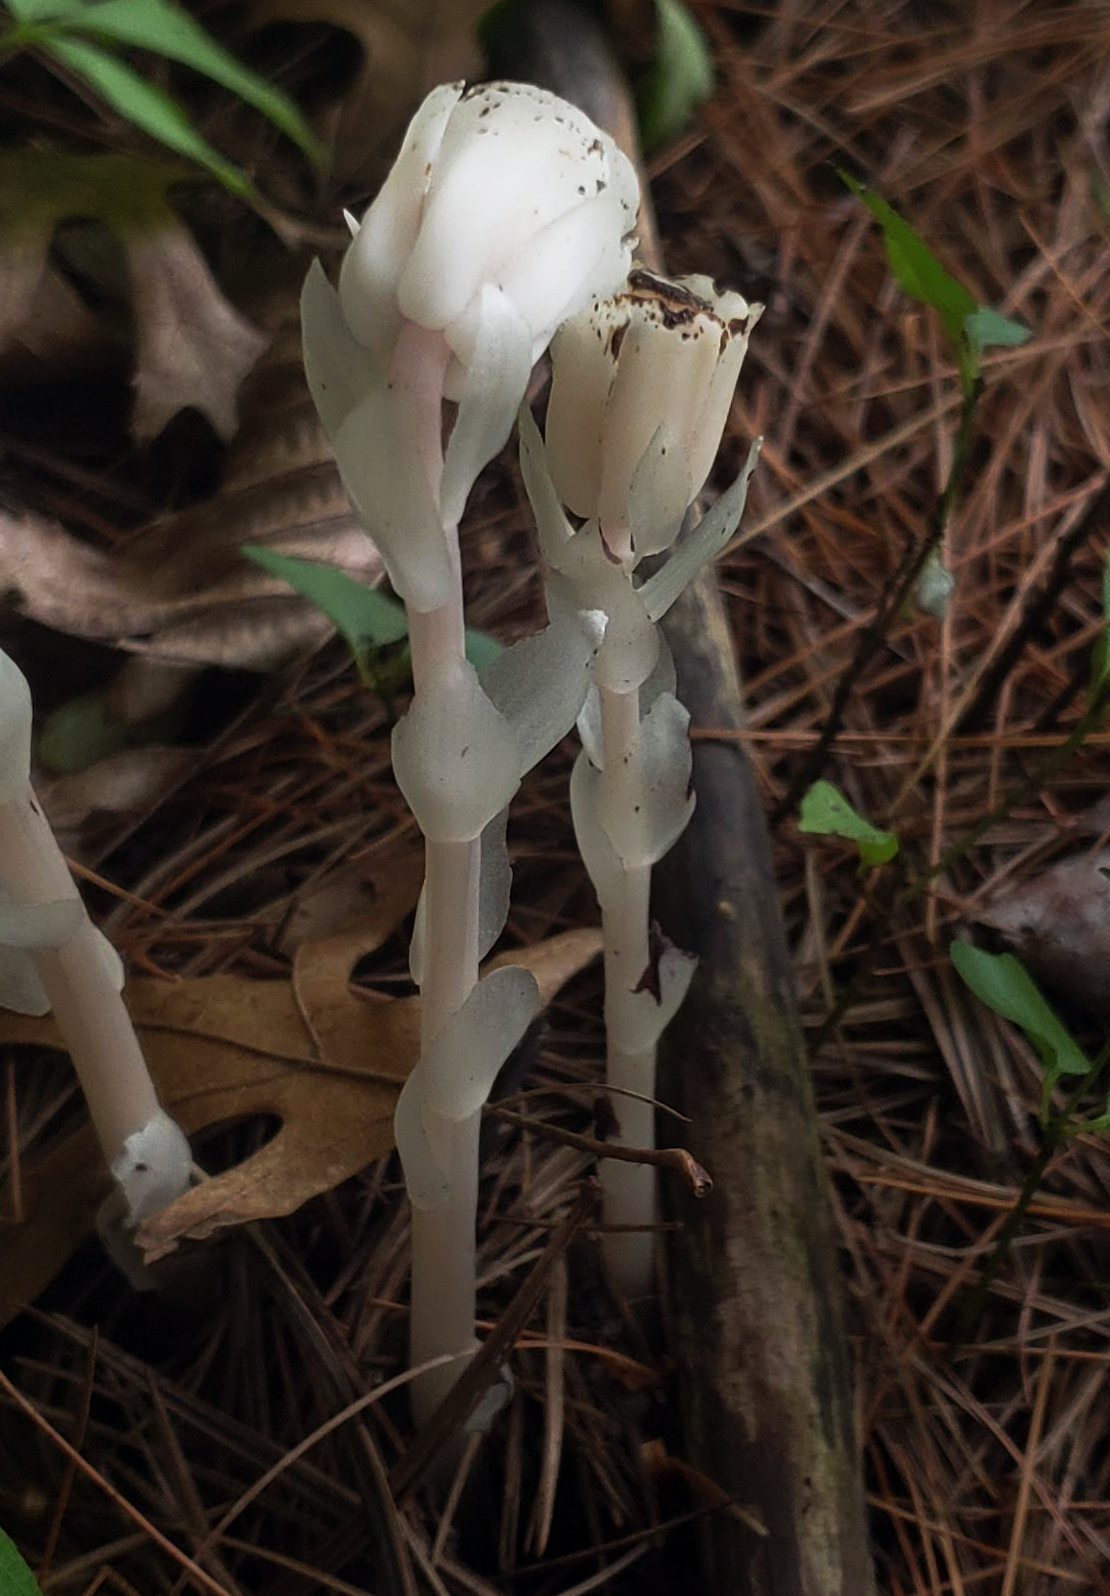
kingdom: Plantae
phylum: Tracheophyta
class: Magnoliopsida
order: Ericales
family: Ericaceae
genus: Monotropa
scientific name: Monotropa uniflora
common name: Convulsion root
